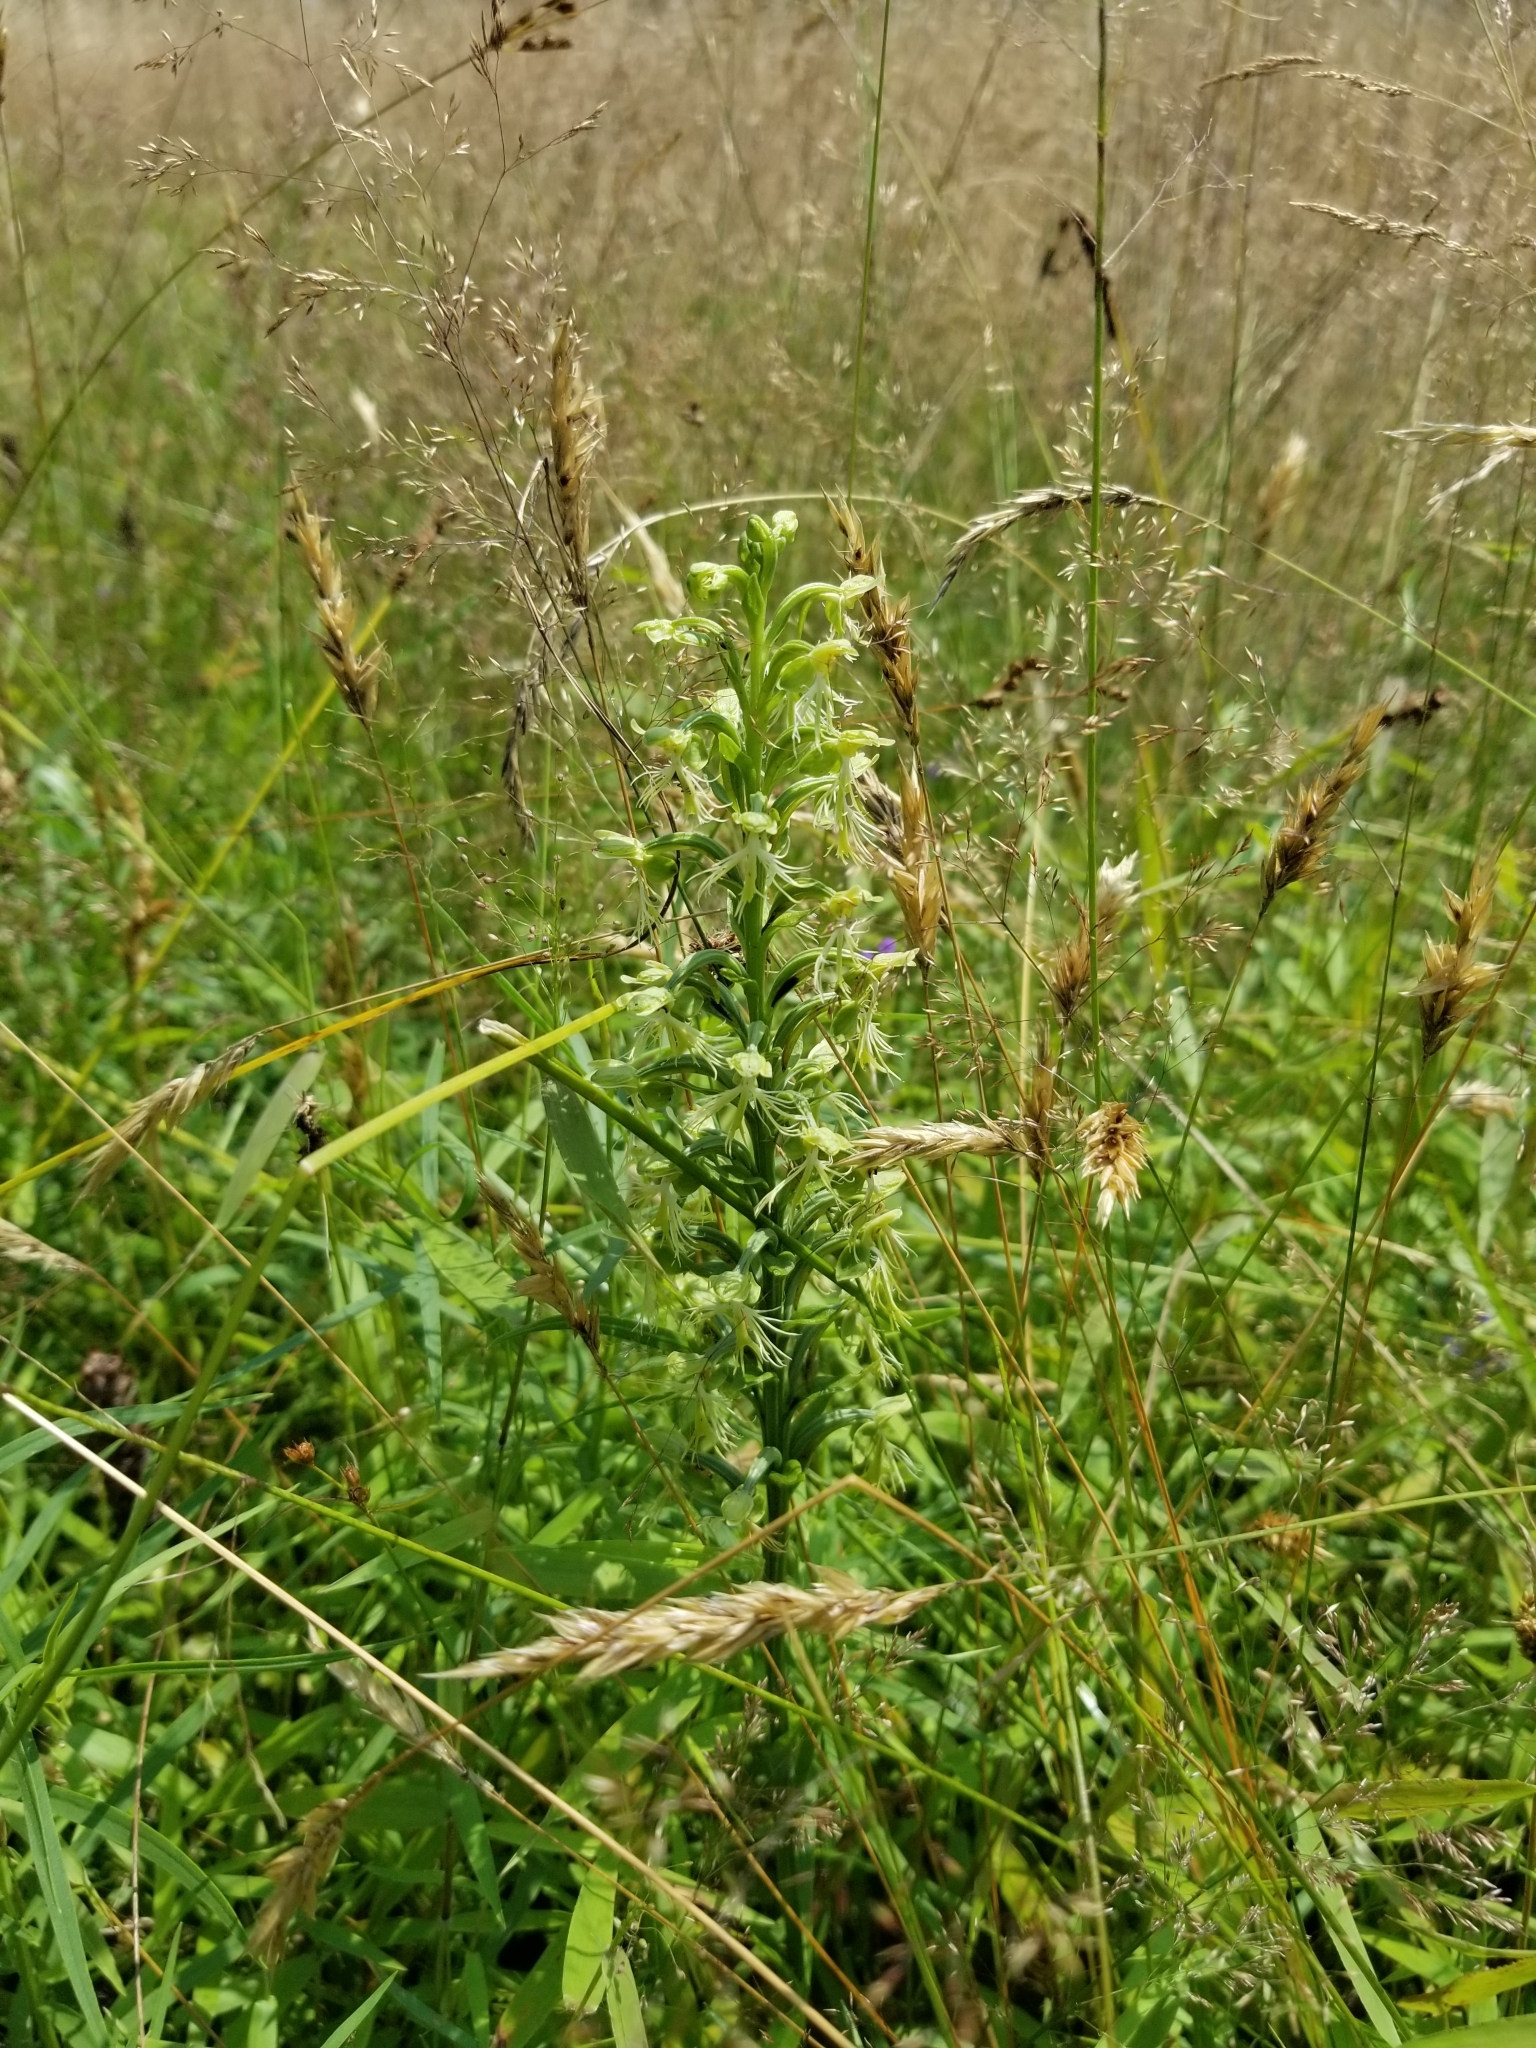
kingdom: Plantae
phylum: Tracheophyta
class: Liliopsida
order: Asparagales
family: Orchidaceae
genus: Platanthera
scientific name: Platanthera lacera
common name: Green fringed orchid
